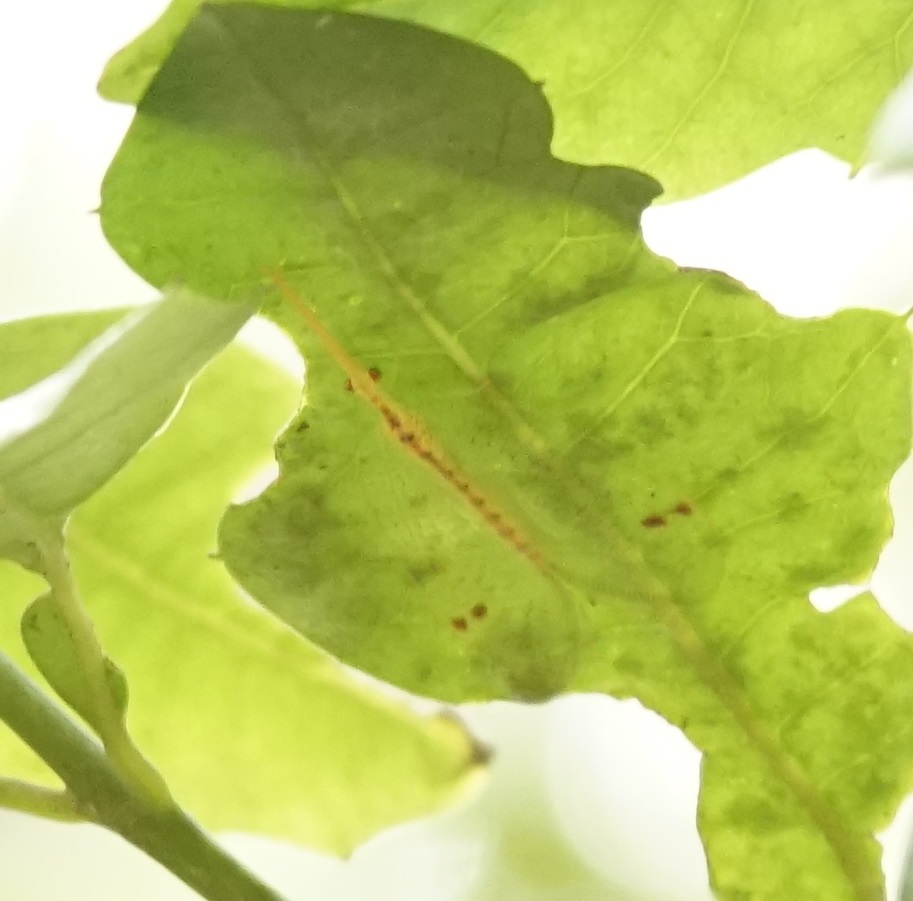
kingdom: Animalia
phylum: Arthropoda
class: Insecta
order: Neuroptera
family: Nymphidae
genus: Norfolius
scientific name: Norfolius howensis
